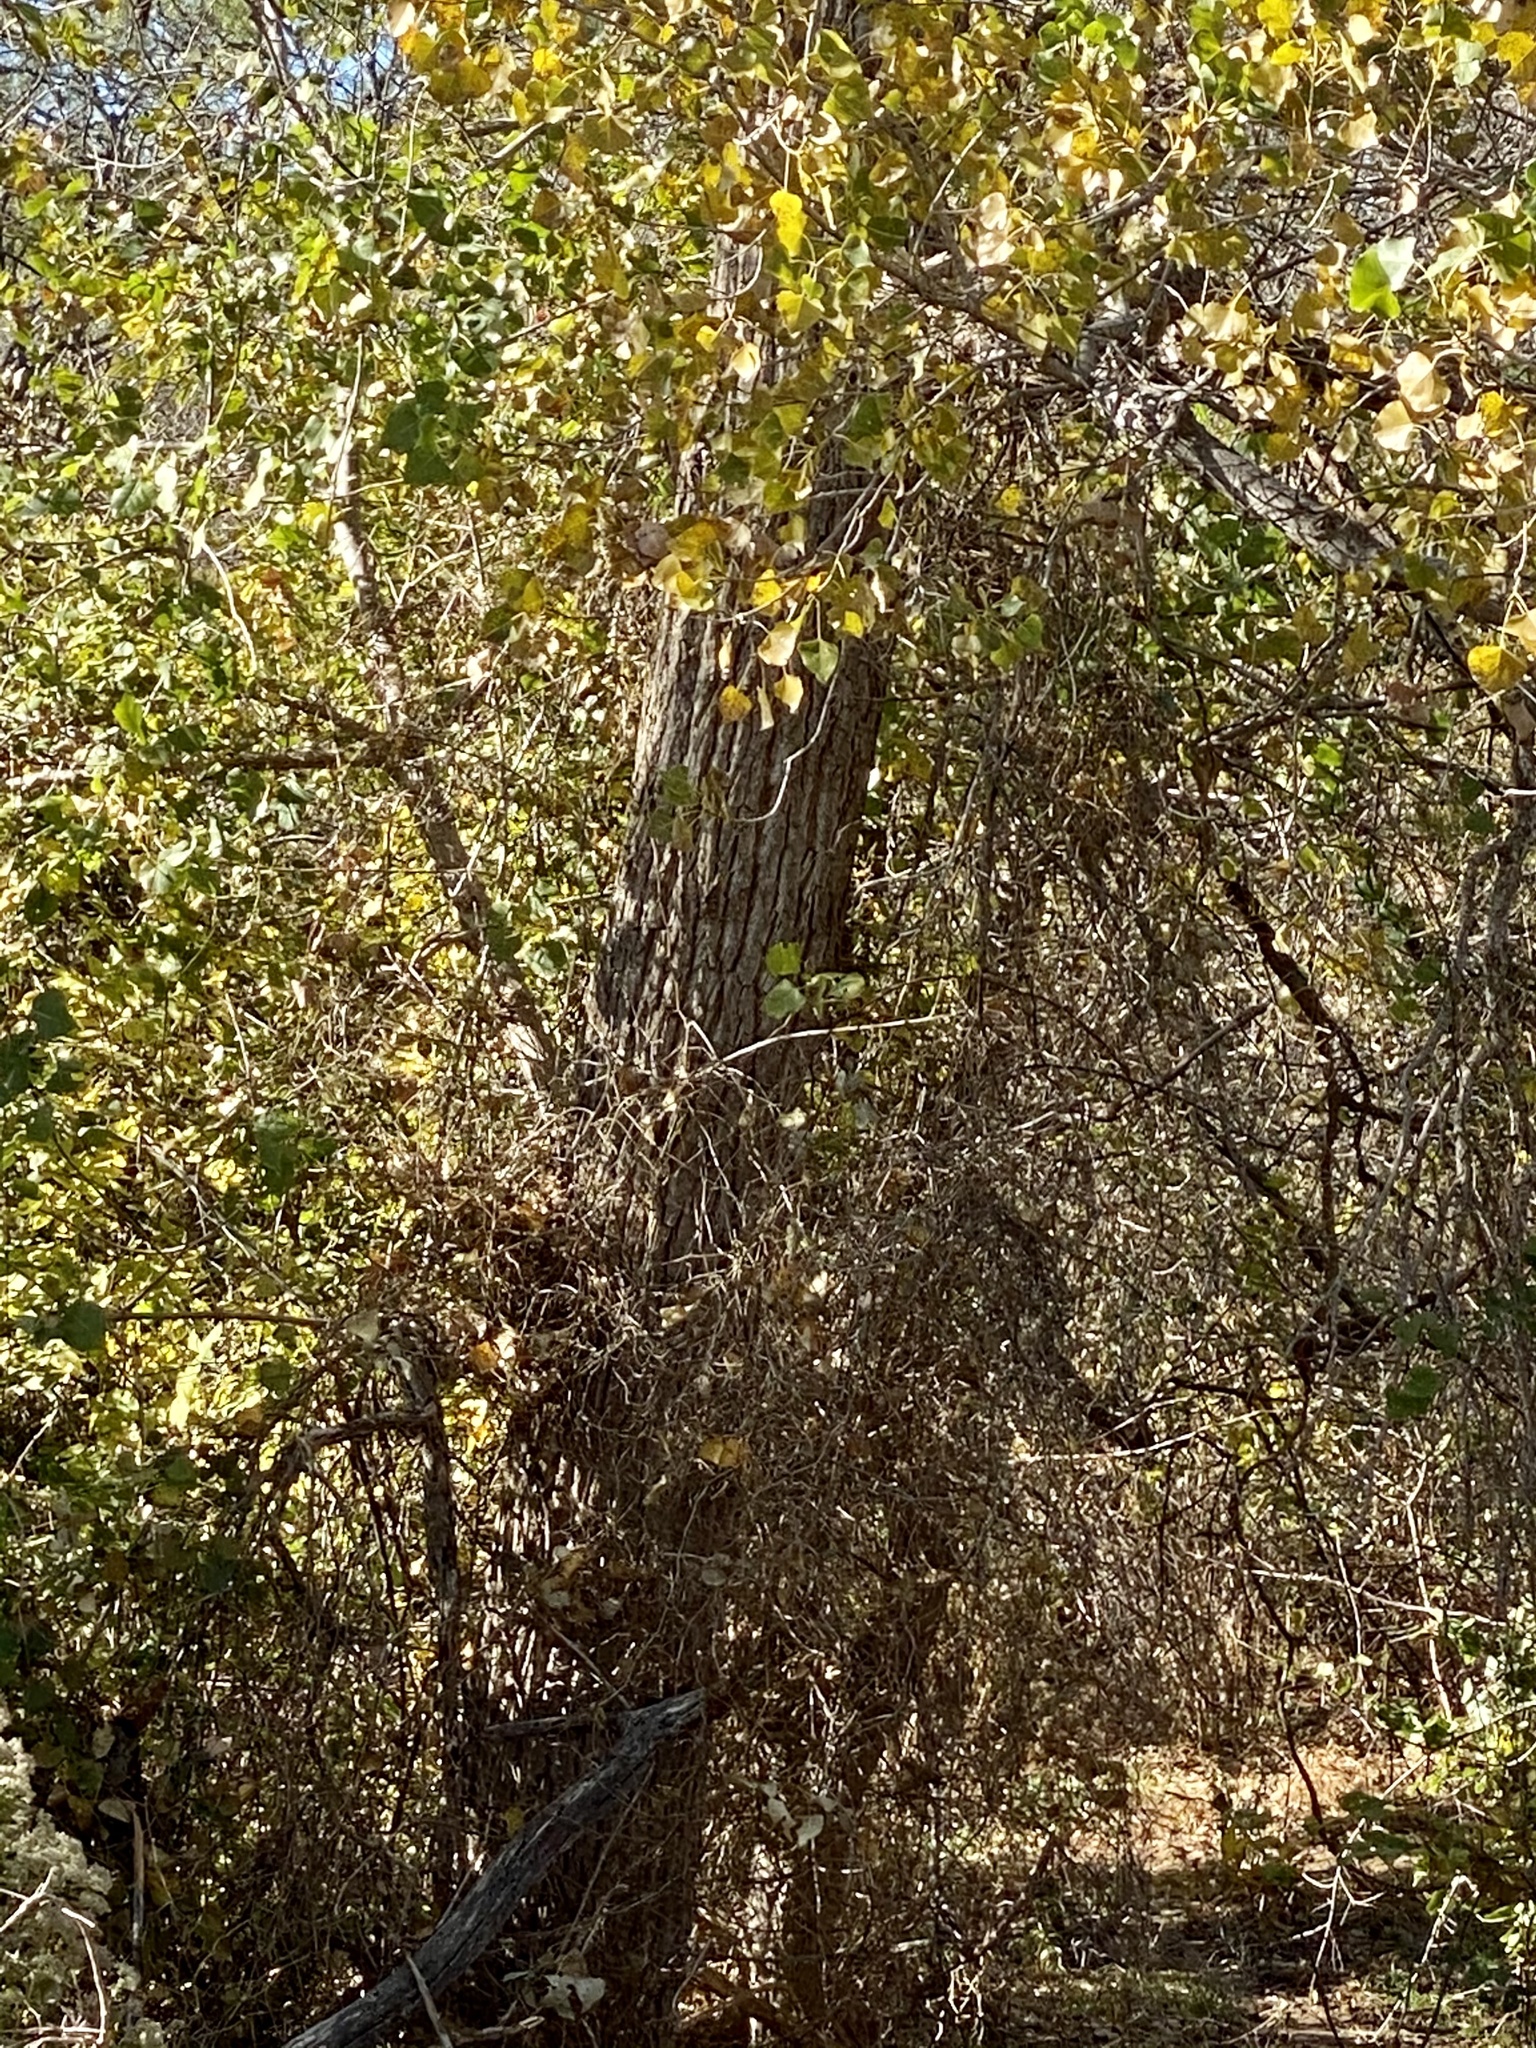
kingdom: Plantae
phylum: Tracheophyta
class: Magnoliopsida
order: Malpighiales
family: Salicaceae
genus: Populus
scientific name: Populus deltoides
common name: Eastern cottonwood
